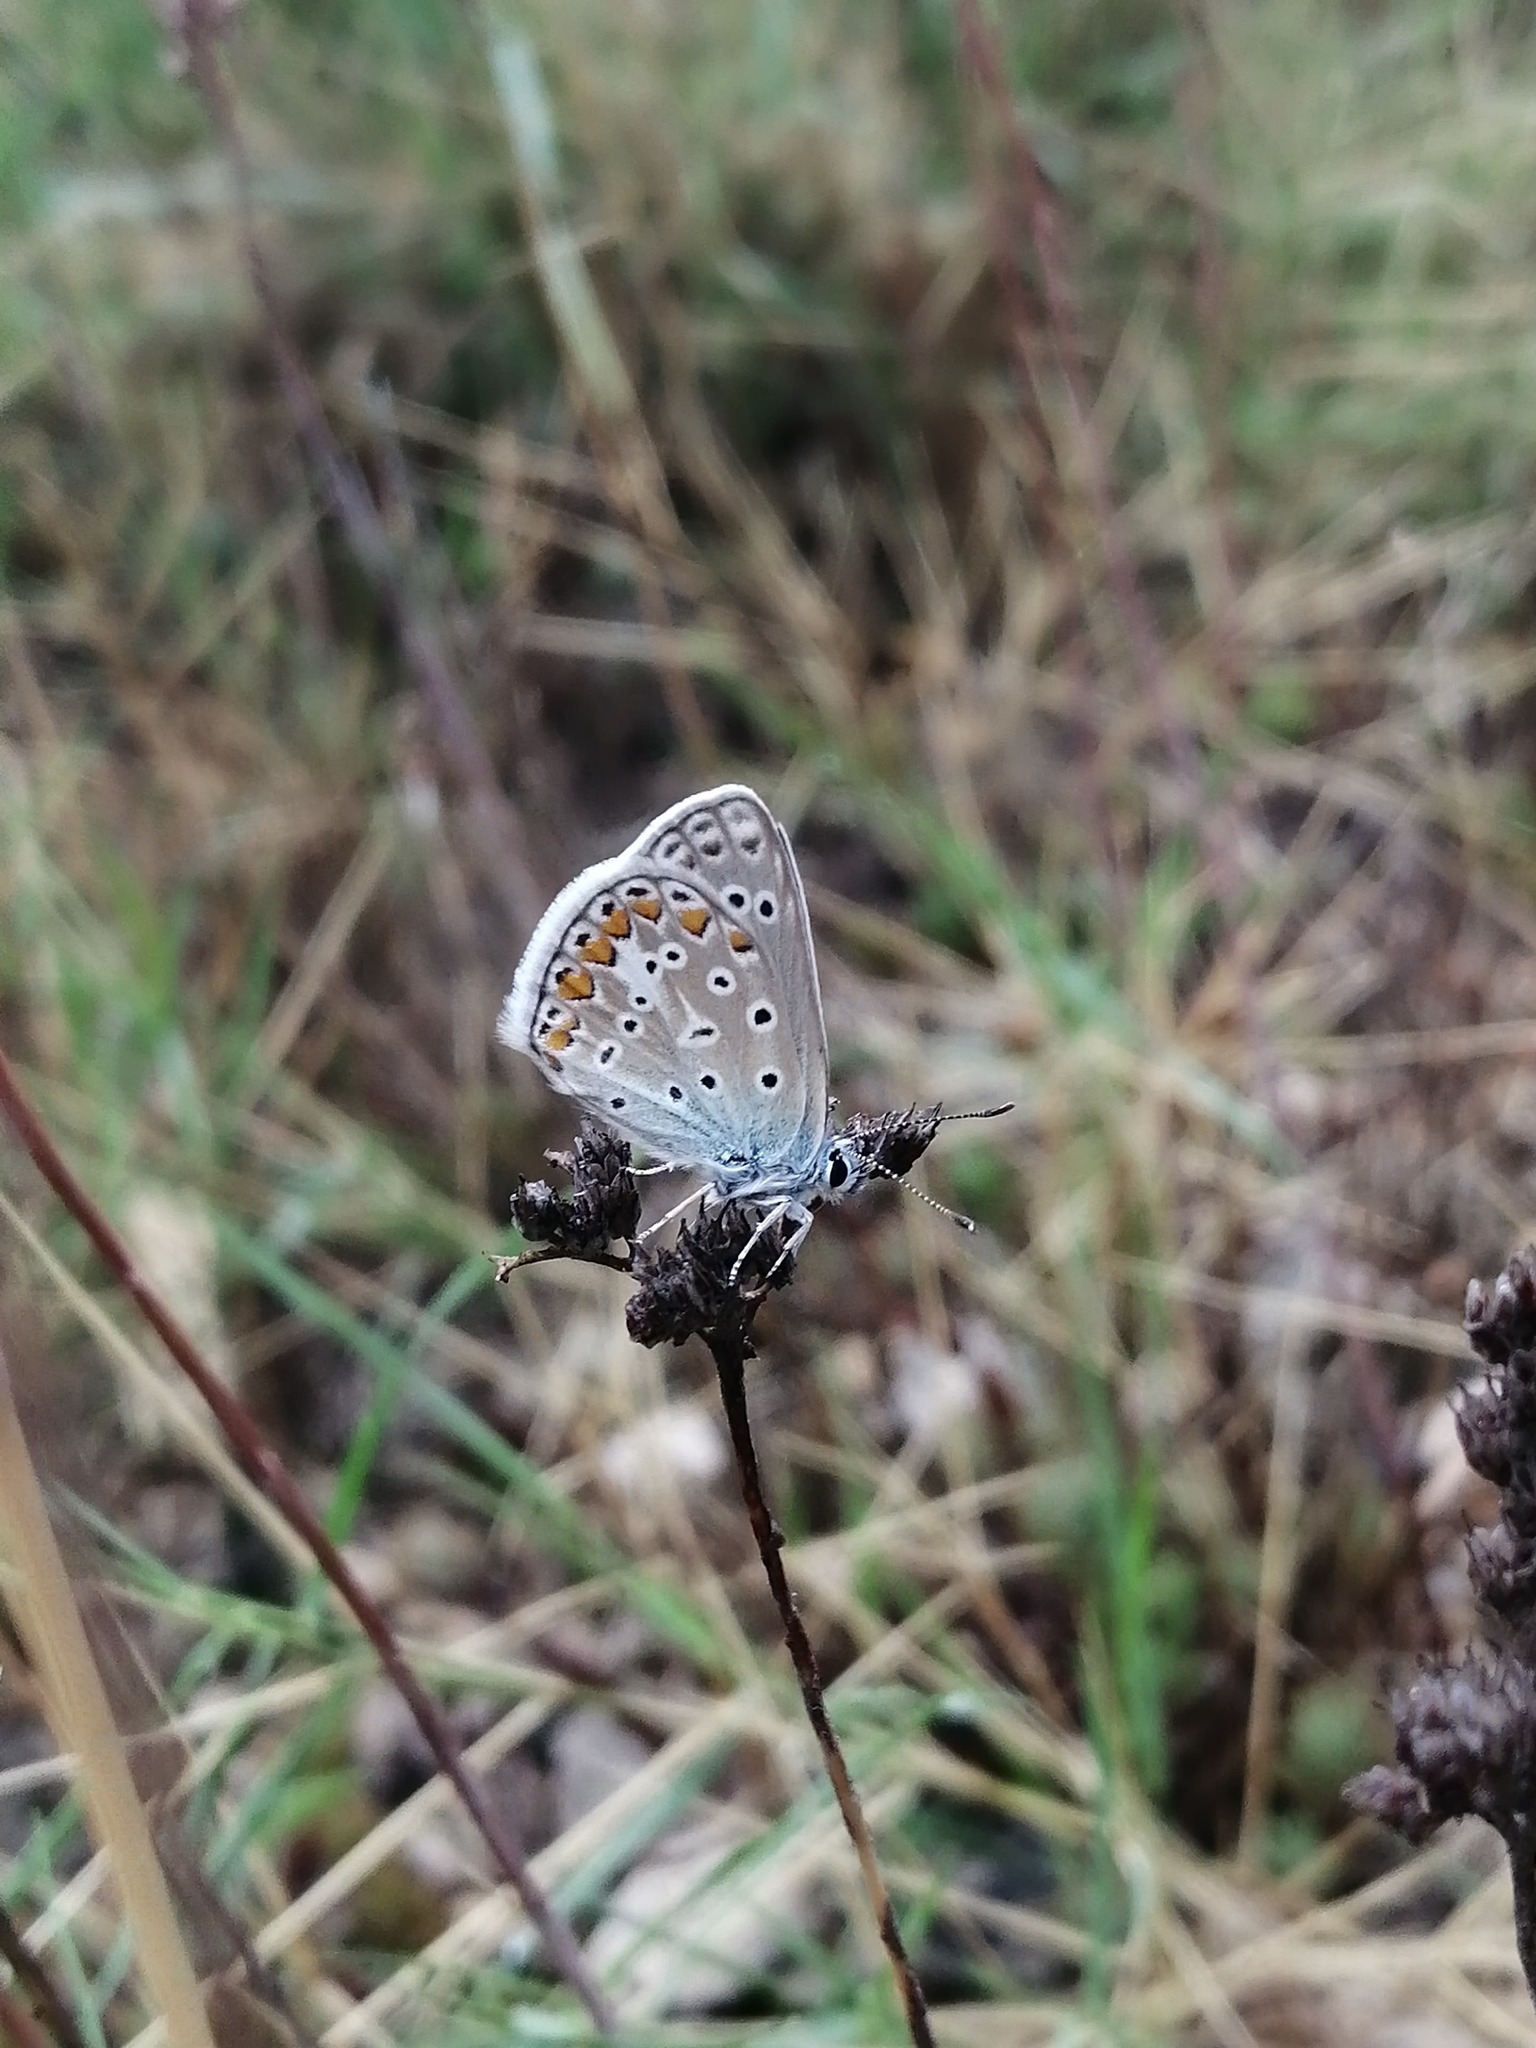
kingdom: Animalia
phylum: Arthropoda
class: Insecta
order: Lepidoptera
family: Lycaenidae
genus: Polyommatus
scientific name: Polyommatus icarus
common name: Common blue
